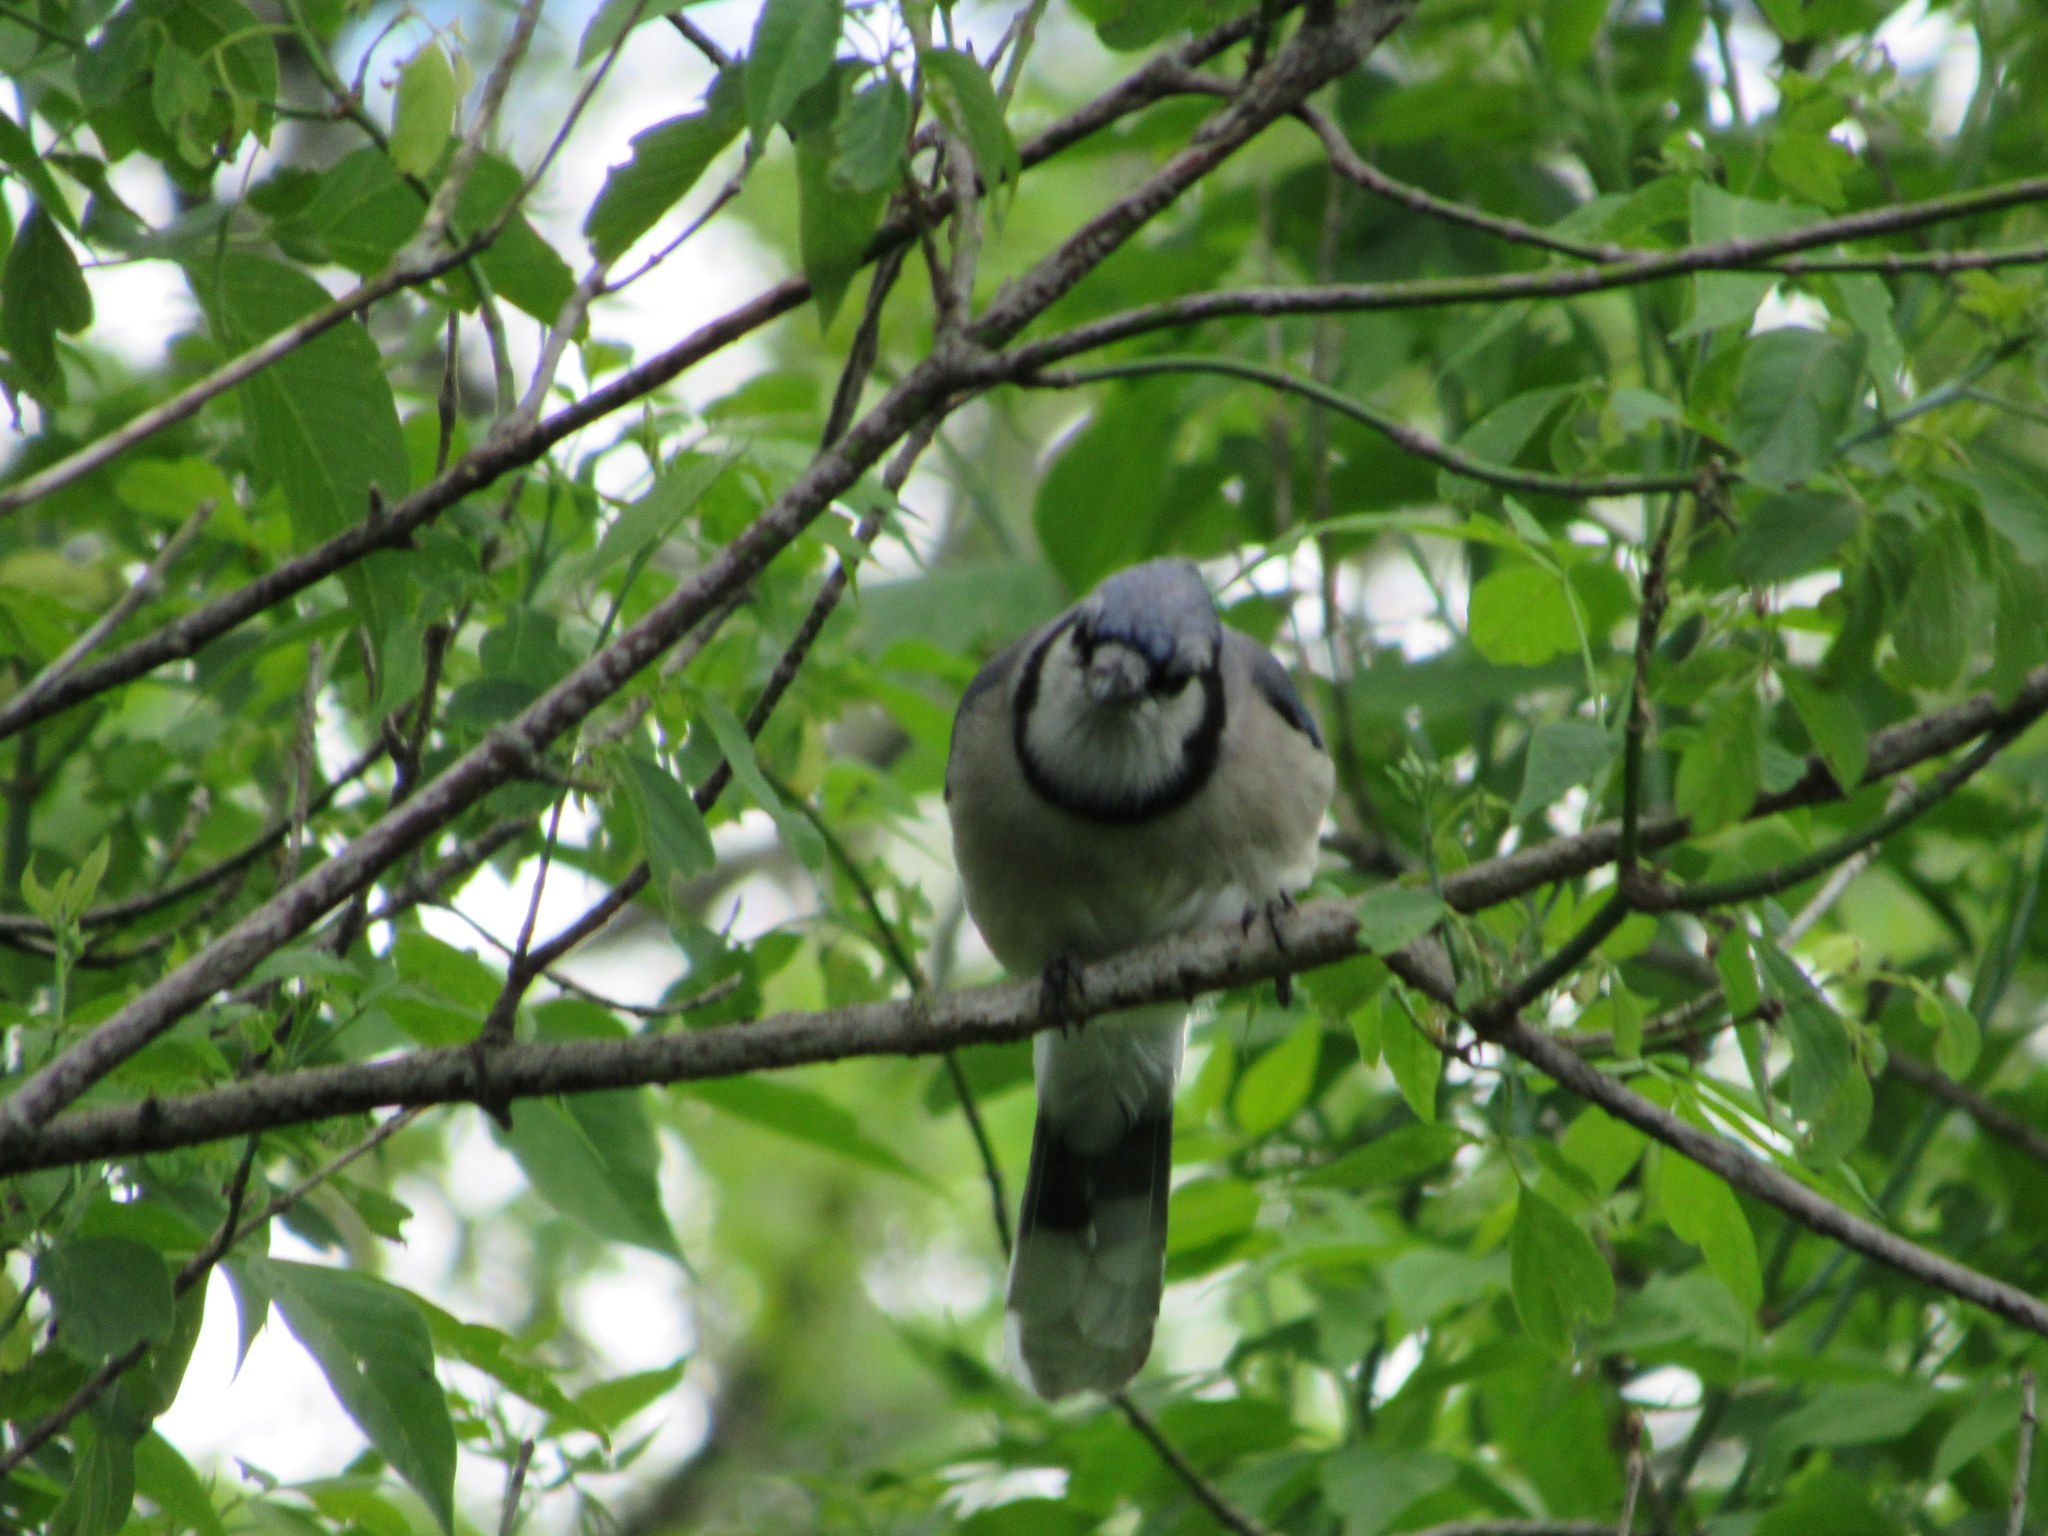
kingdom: Animalia
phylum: Chordata
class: Aves
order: Passeriformes
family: Corvidae
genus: Cyanocitta
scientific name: Cyanocitta cristata
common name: Blue jay
